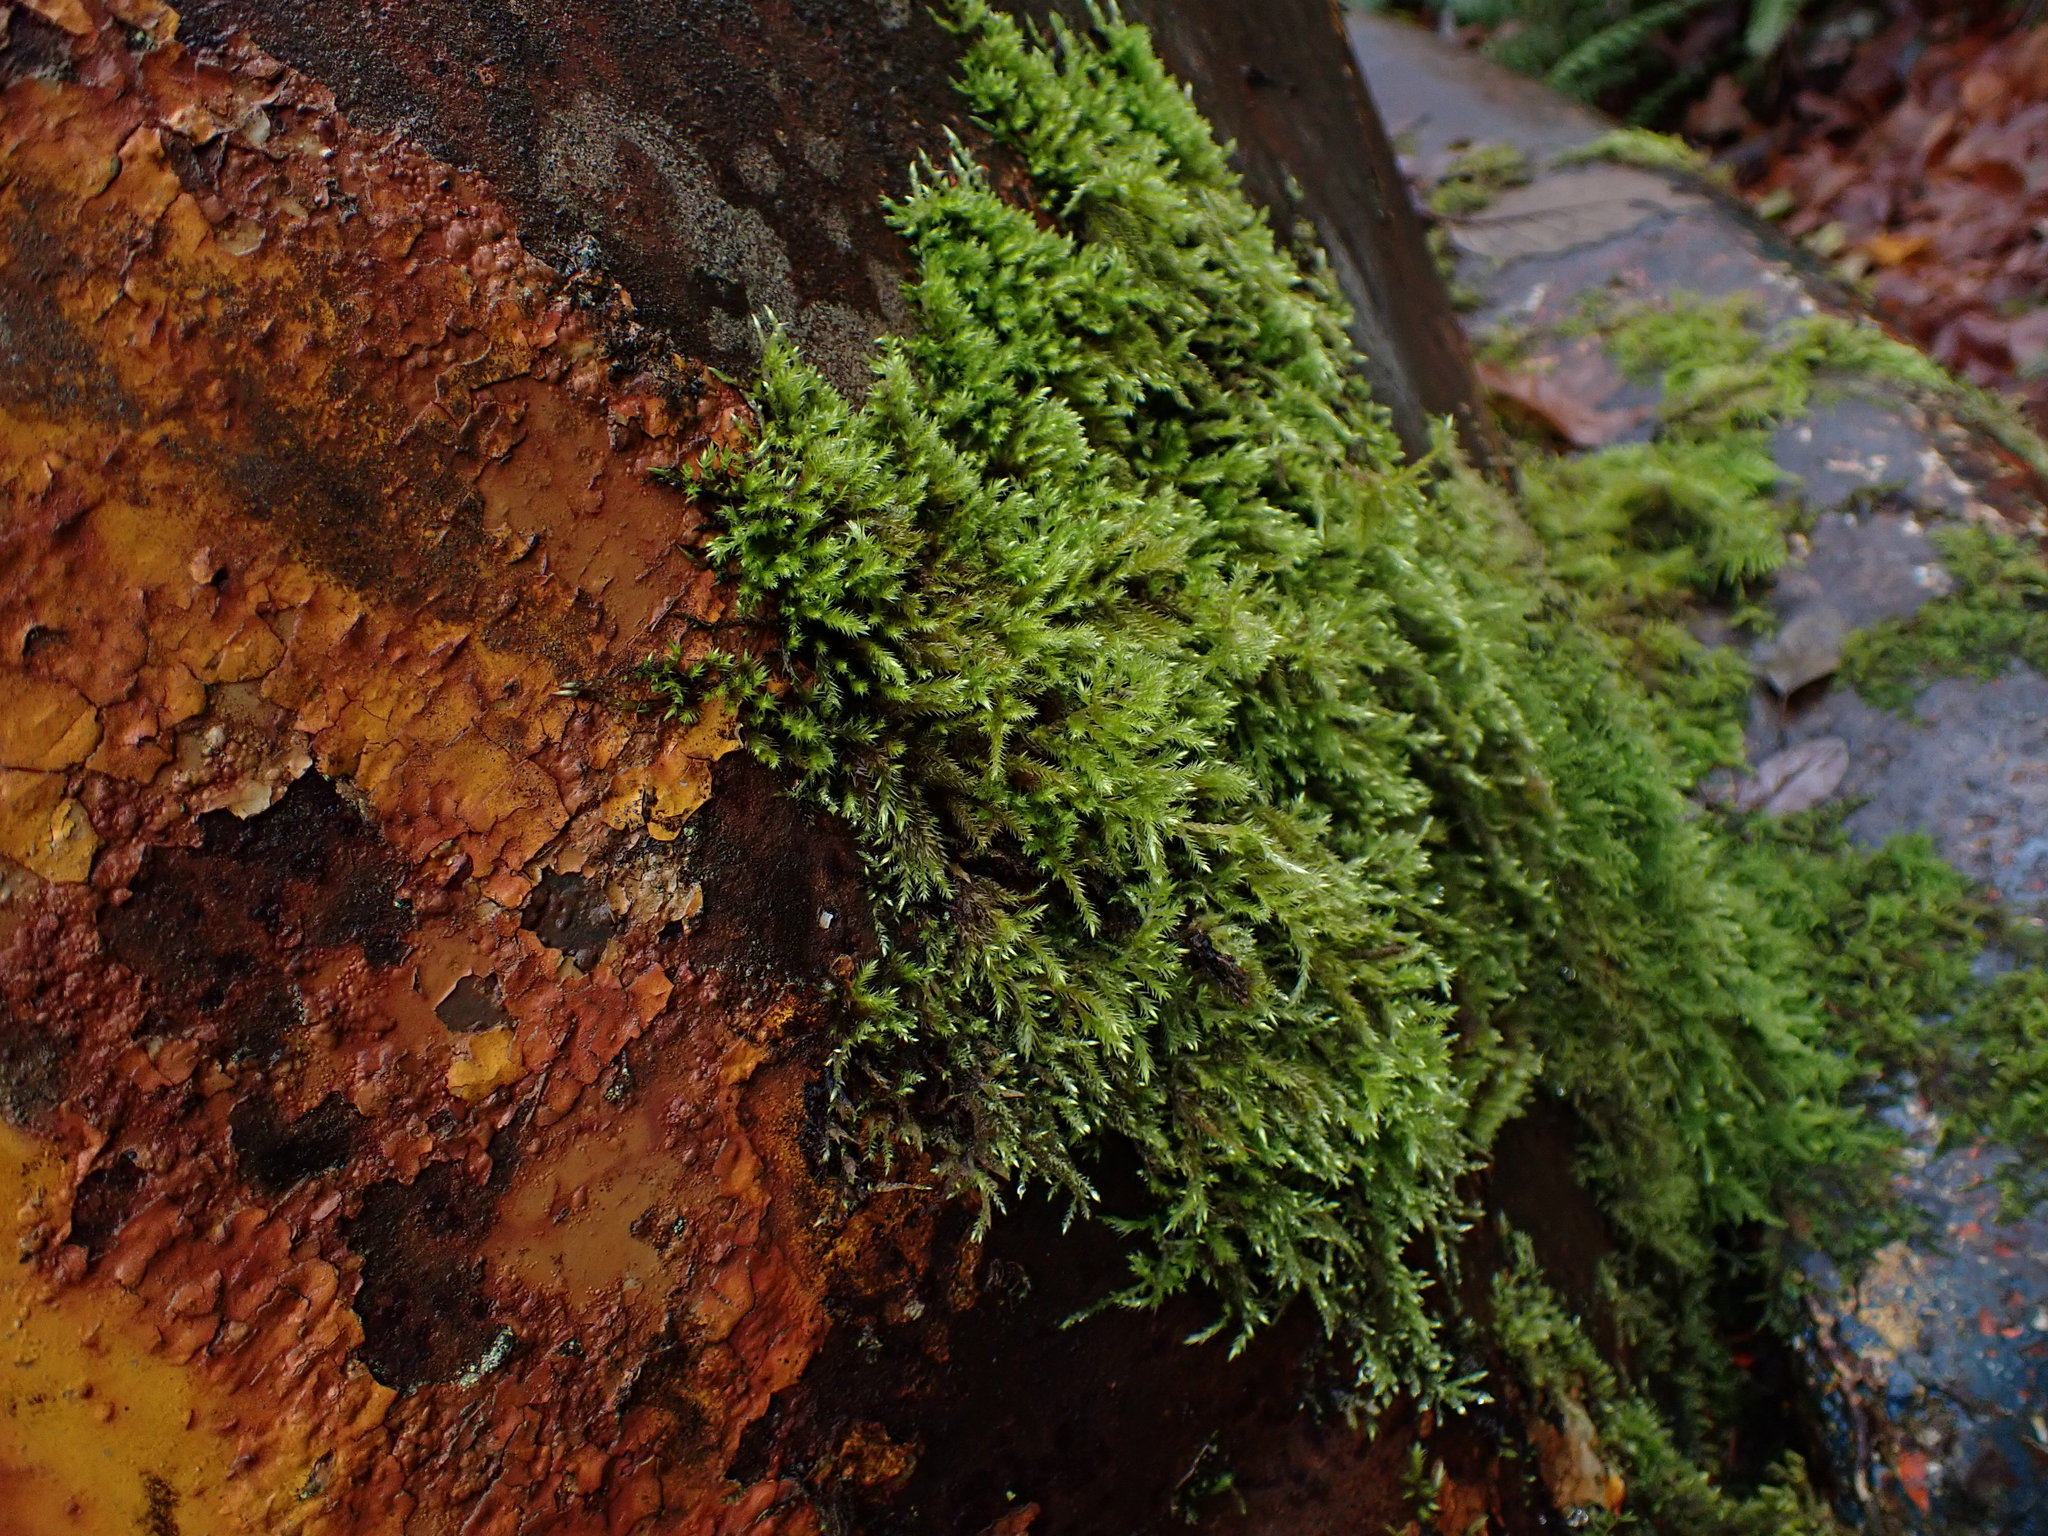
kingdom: Plantae
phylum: Bryophyta
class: Bryopsida
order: Hypnales
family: Brachytheciaceae
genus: Homalothecium
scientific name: Homalothecium fulgescens
